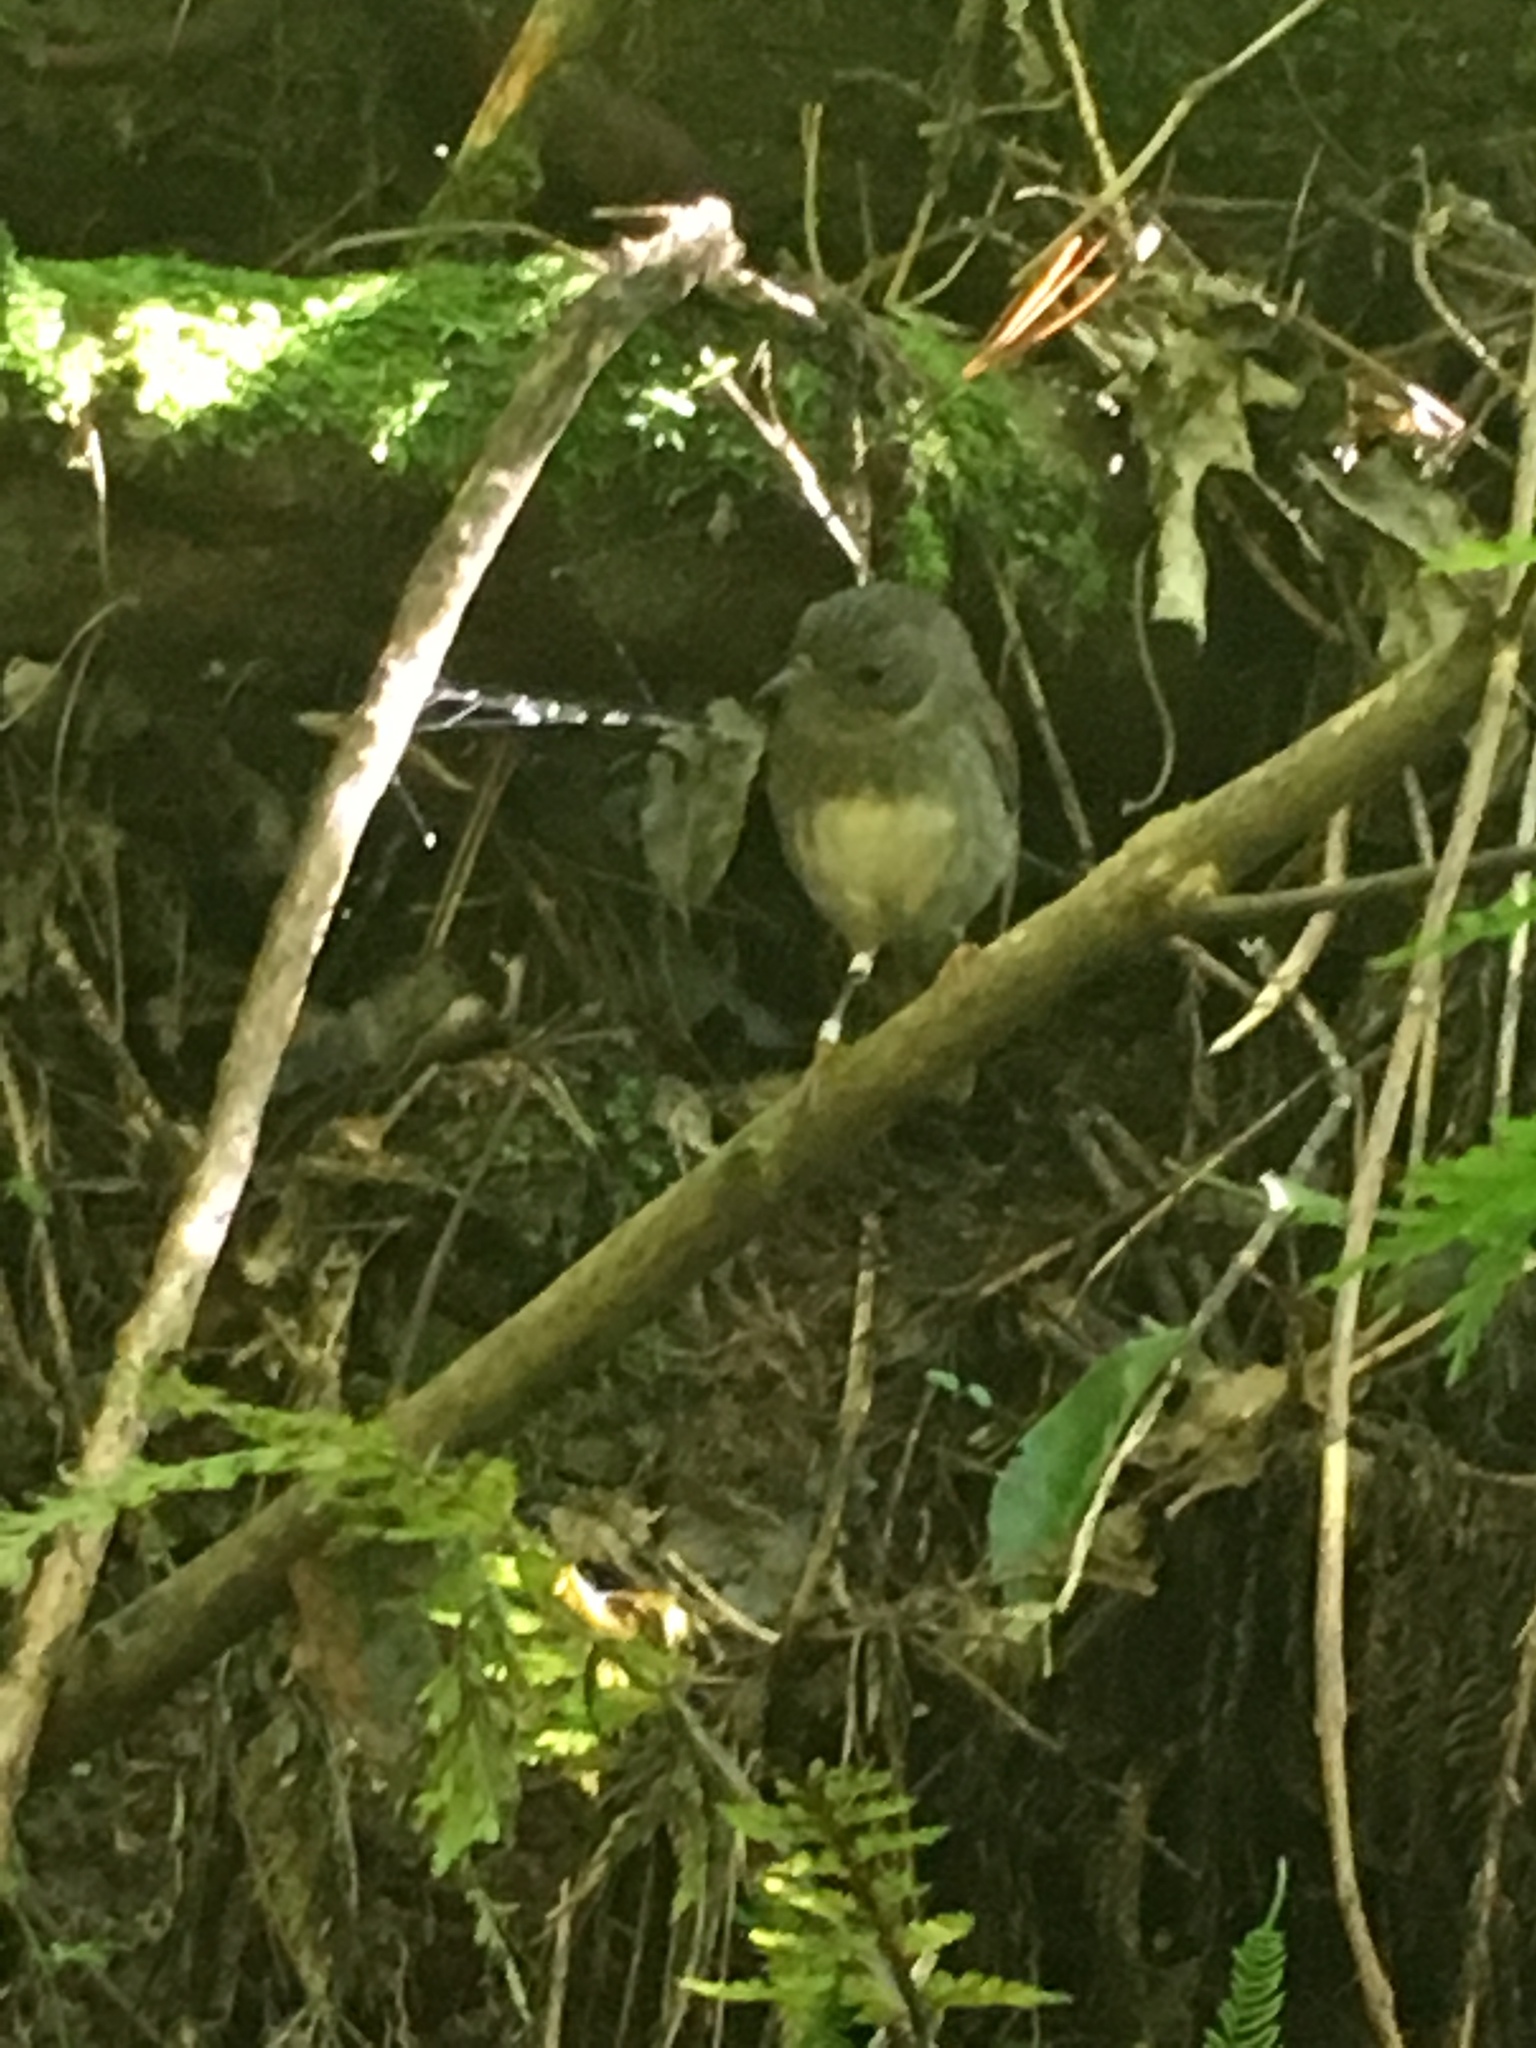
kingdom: Animalia
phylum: Chordata
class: Aves
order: Passeriformes
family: Petroicidae
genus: Petroica
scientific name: Petroica australis
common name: New zealand robin
